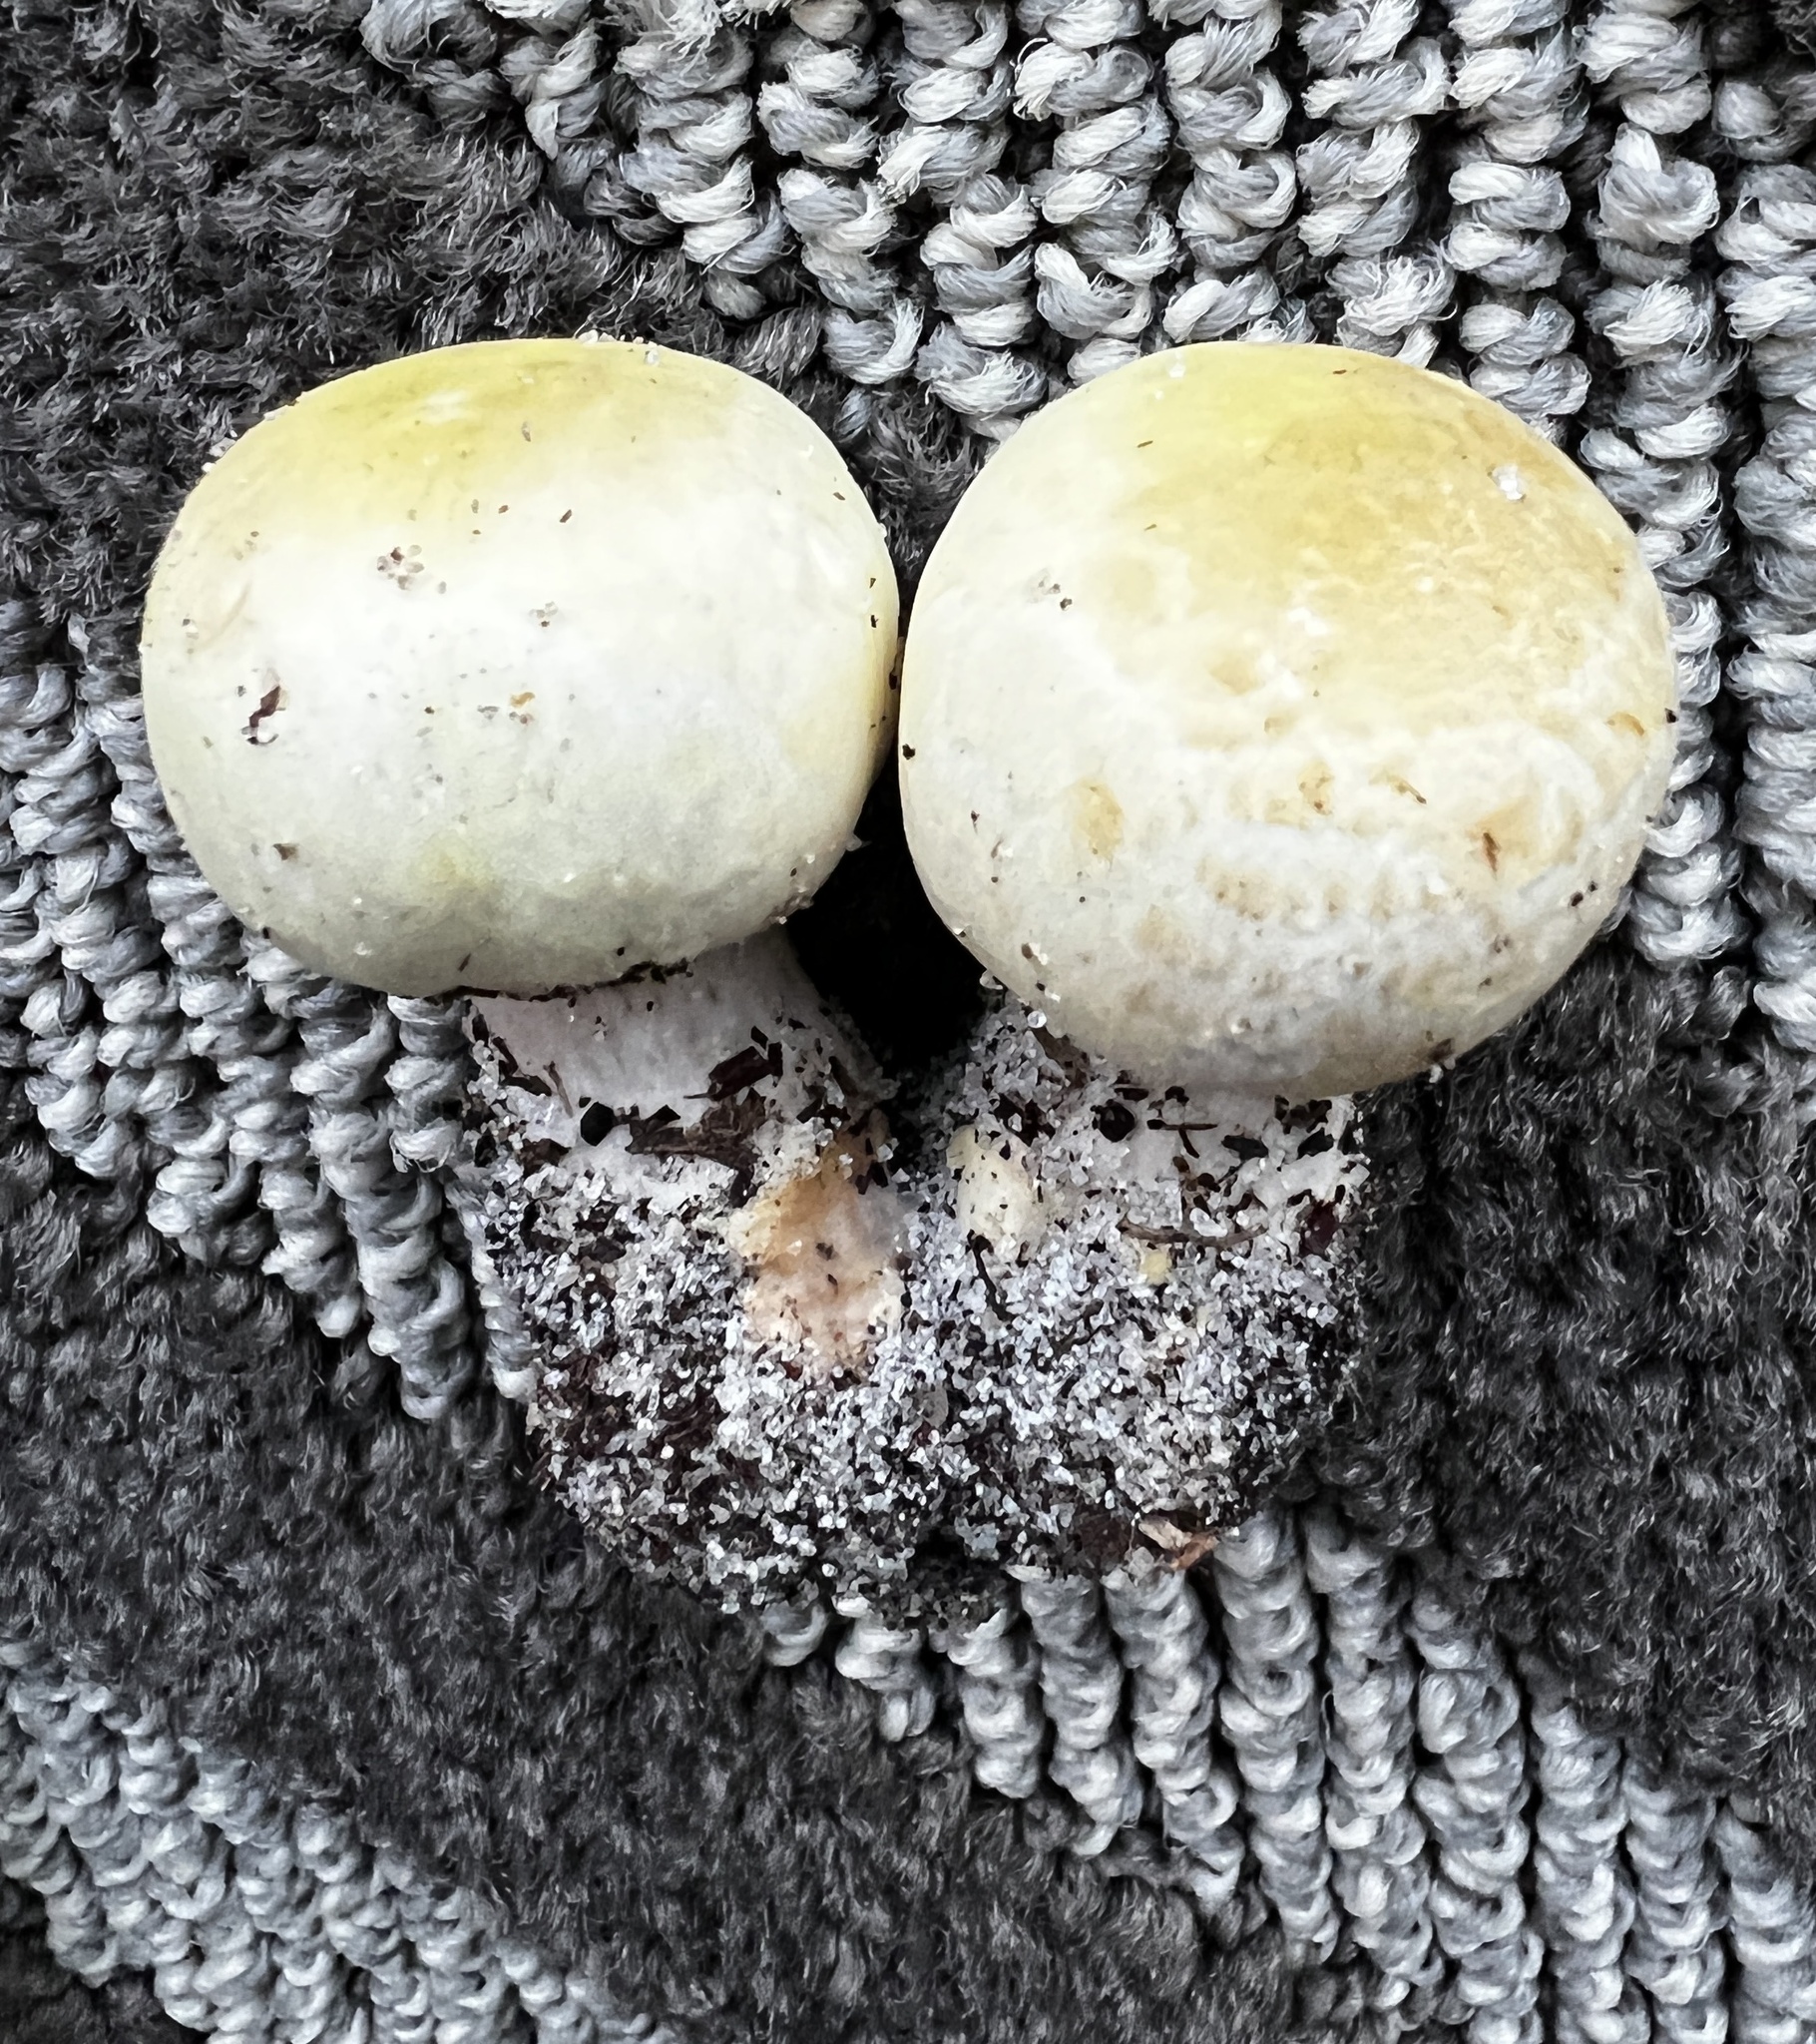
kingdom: Fungi
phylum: Basidiomycota
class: Agaricomycetes
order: Agaricales
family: Agaricaceae
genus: Agaricus
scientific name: Agaricus floridanus
